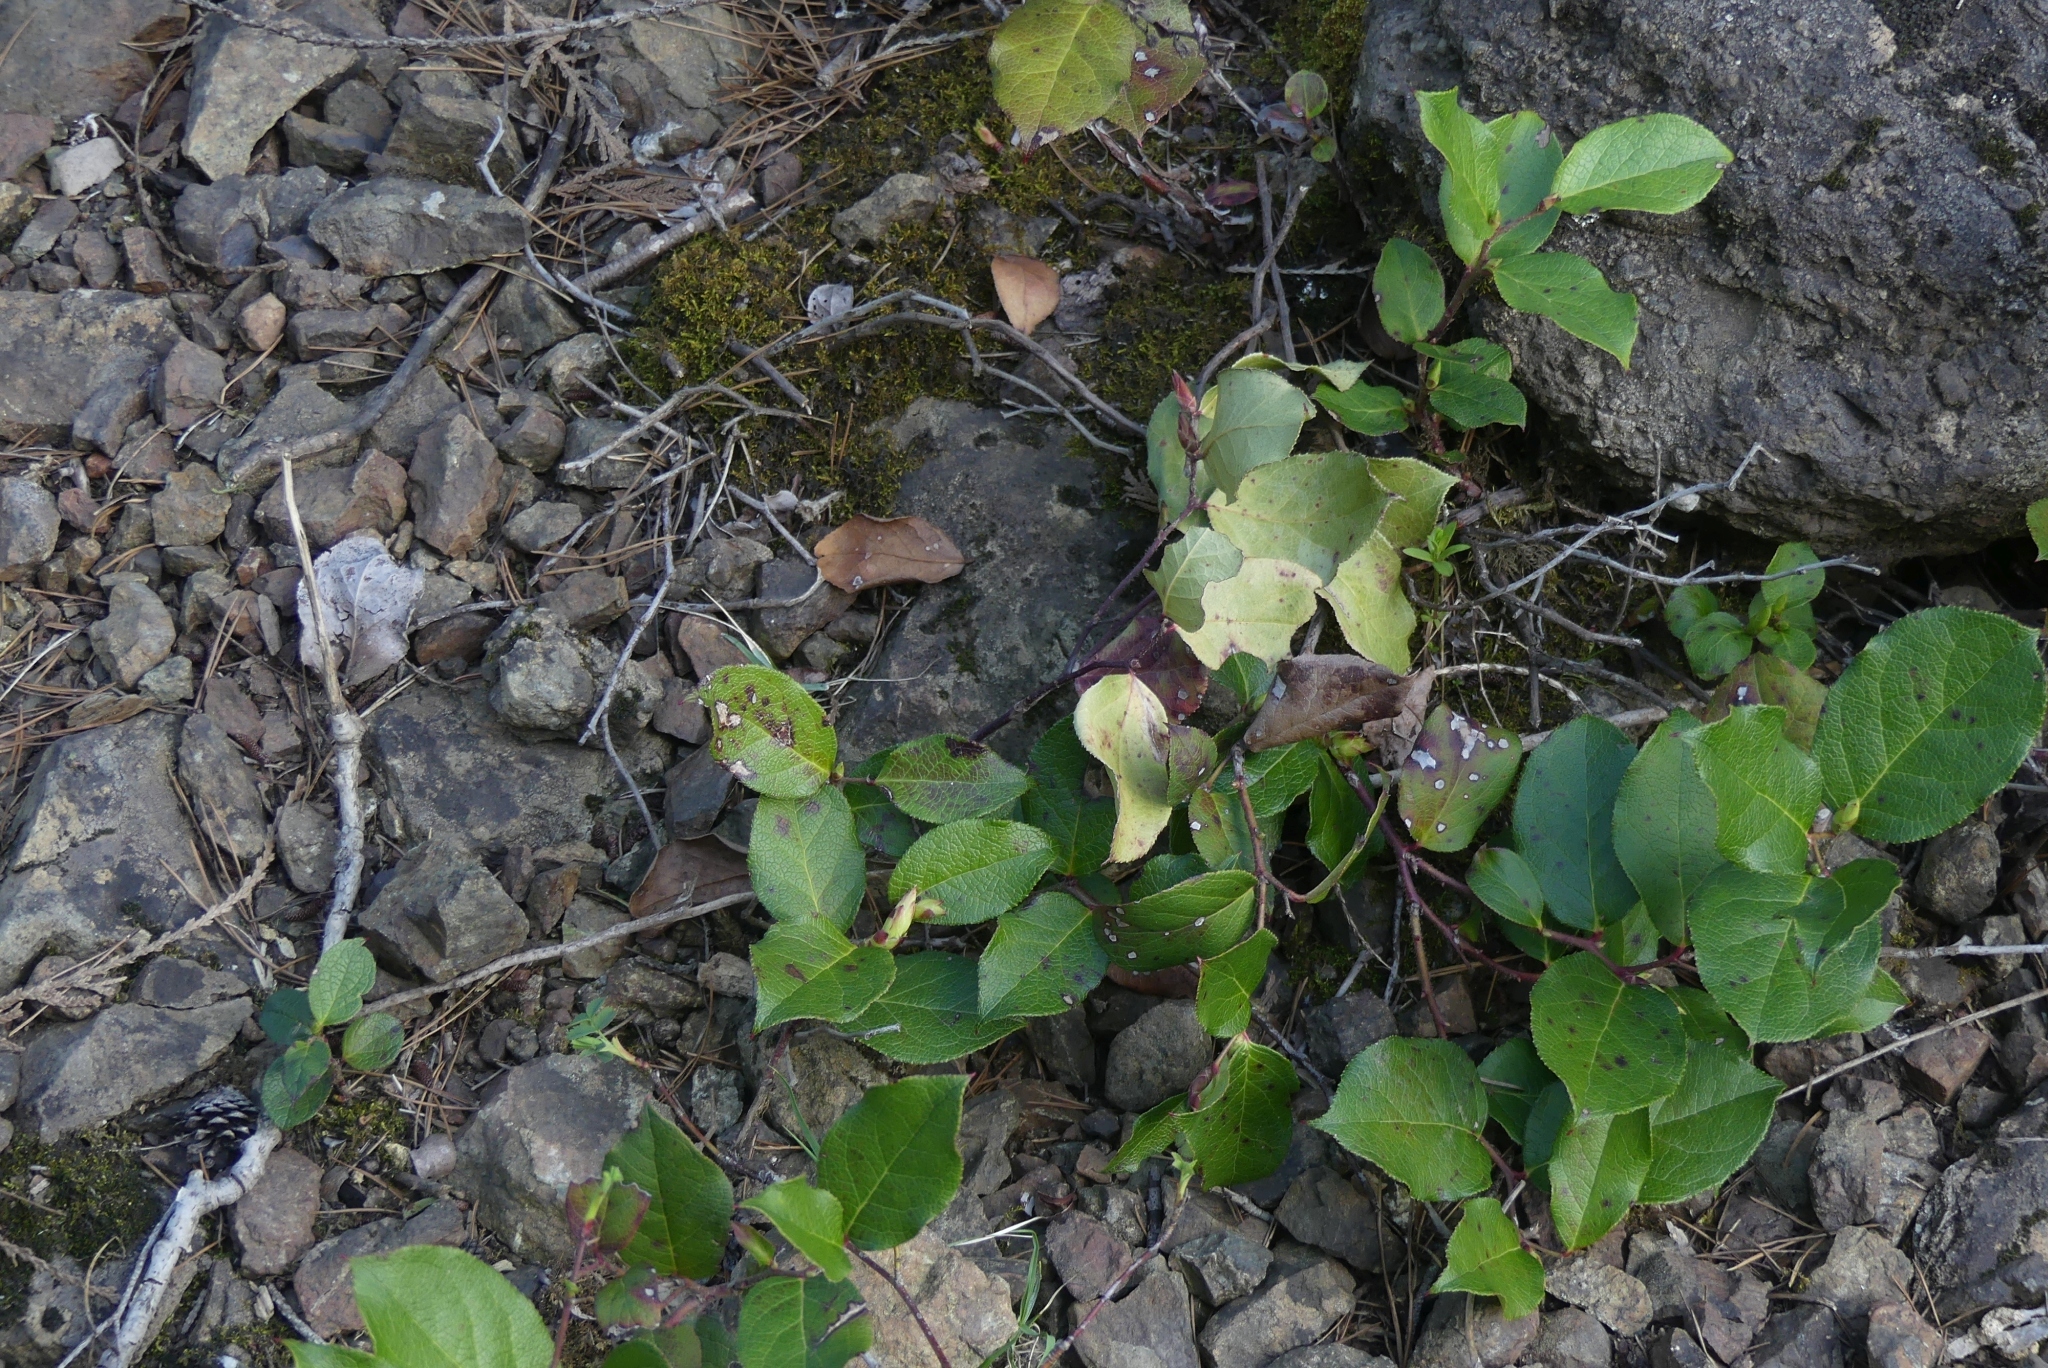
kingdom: Plantae
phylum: Tracheophyta
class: Magnoliopsida
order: Ericales
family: Ericaceae
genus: Gaultheria
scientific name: Gaultheria shallon
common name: Shallon
